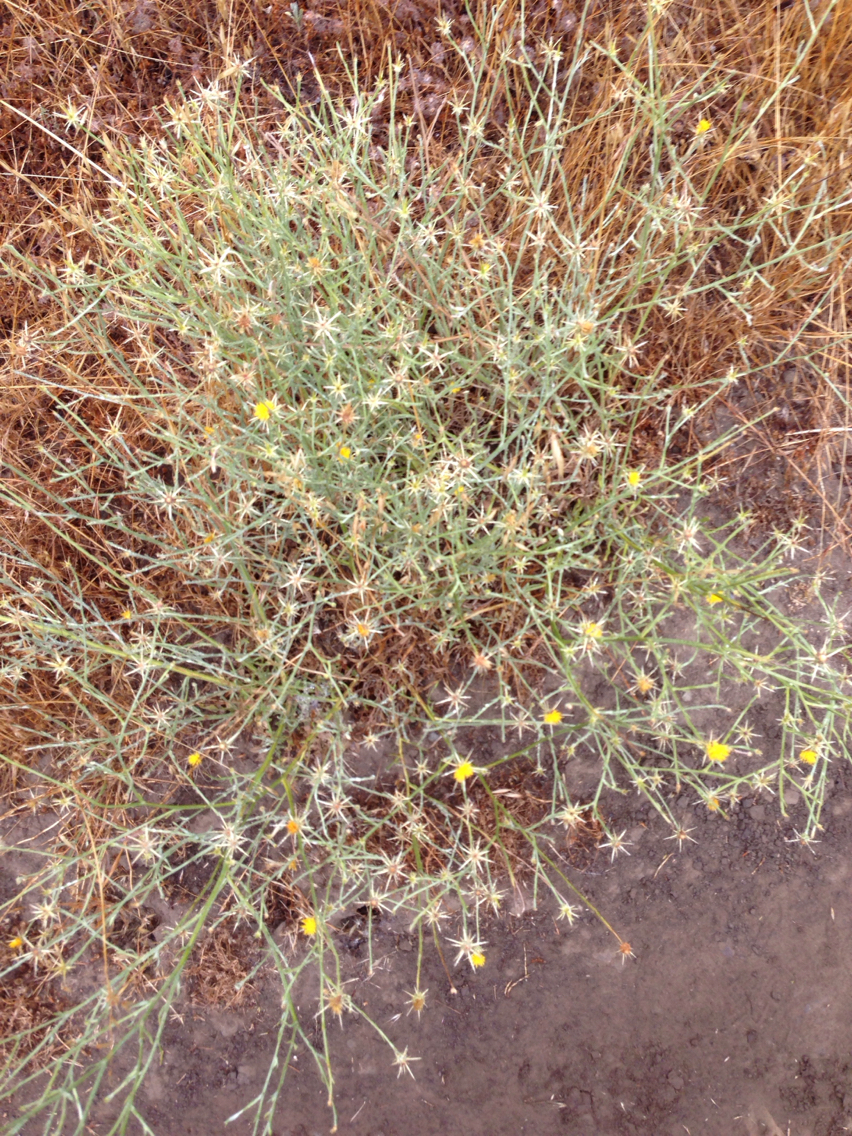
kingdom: Plantae
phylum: Tracheophyta
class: Magnoliopsida
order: Asterales
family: Asteraceae
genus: Centaurea
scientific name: Centaurea solstitialis
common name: Yellow star-thistle
